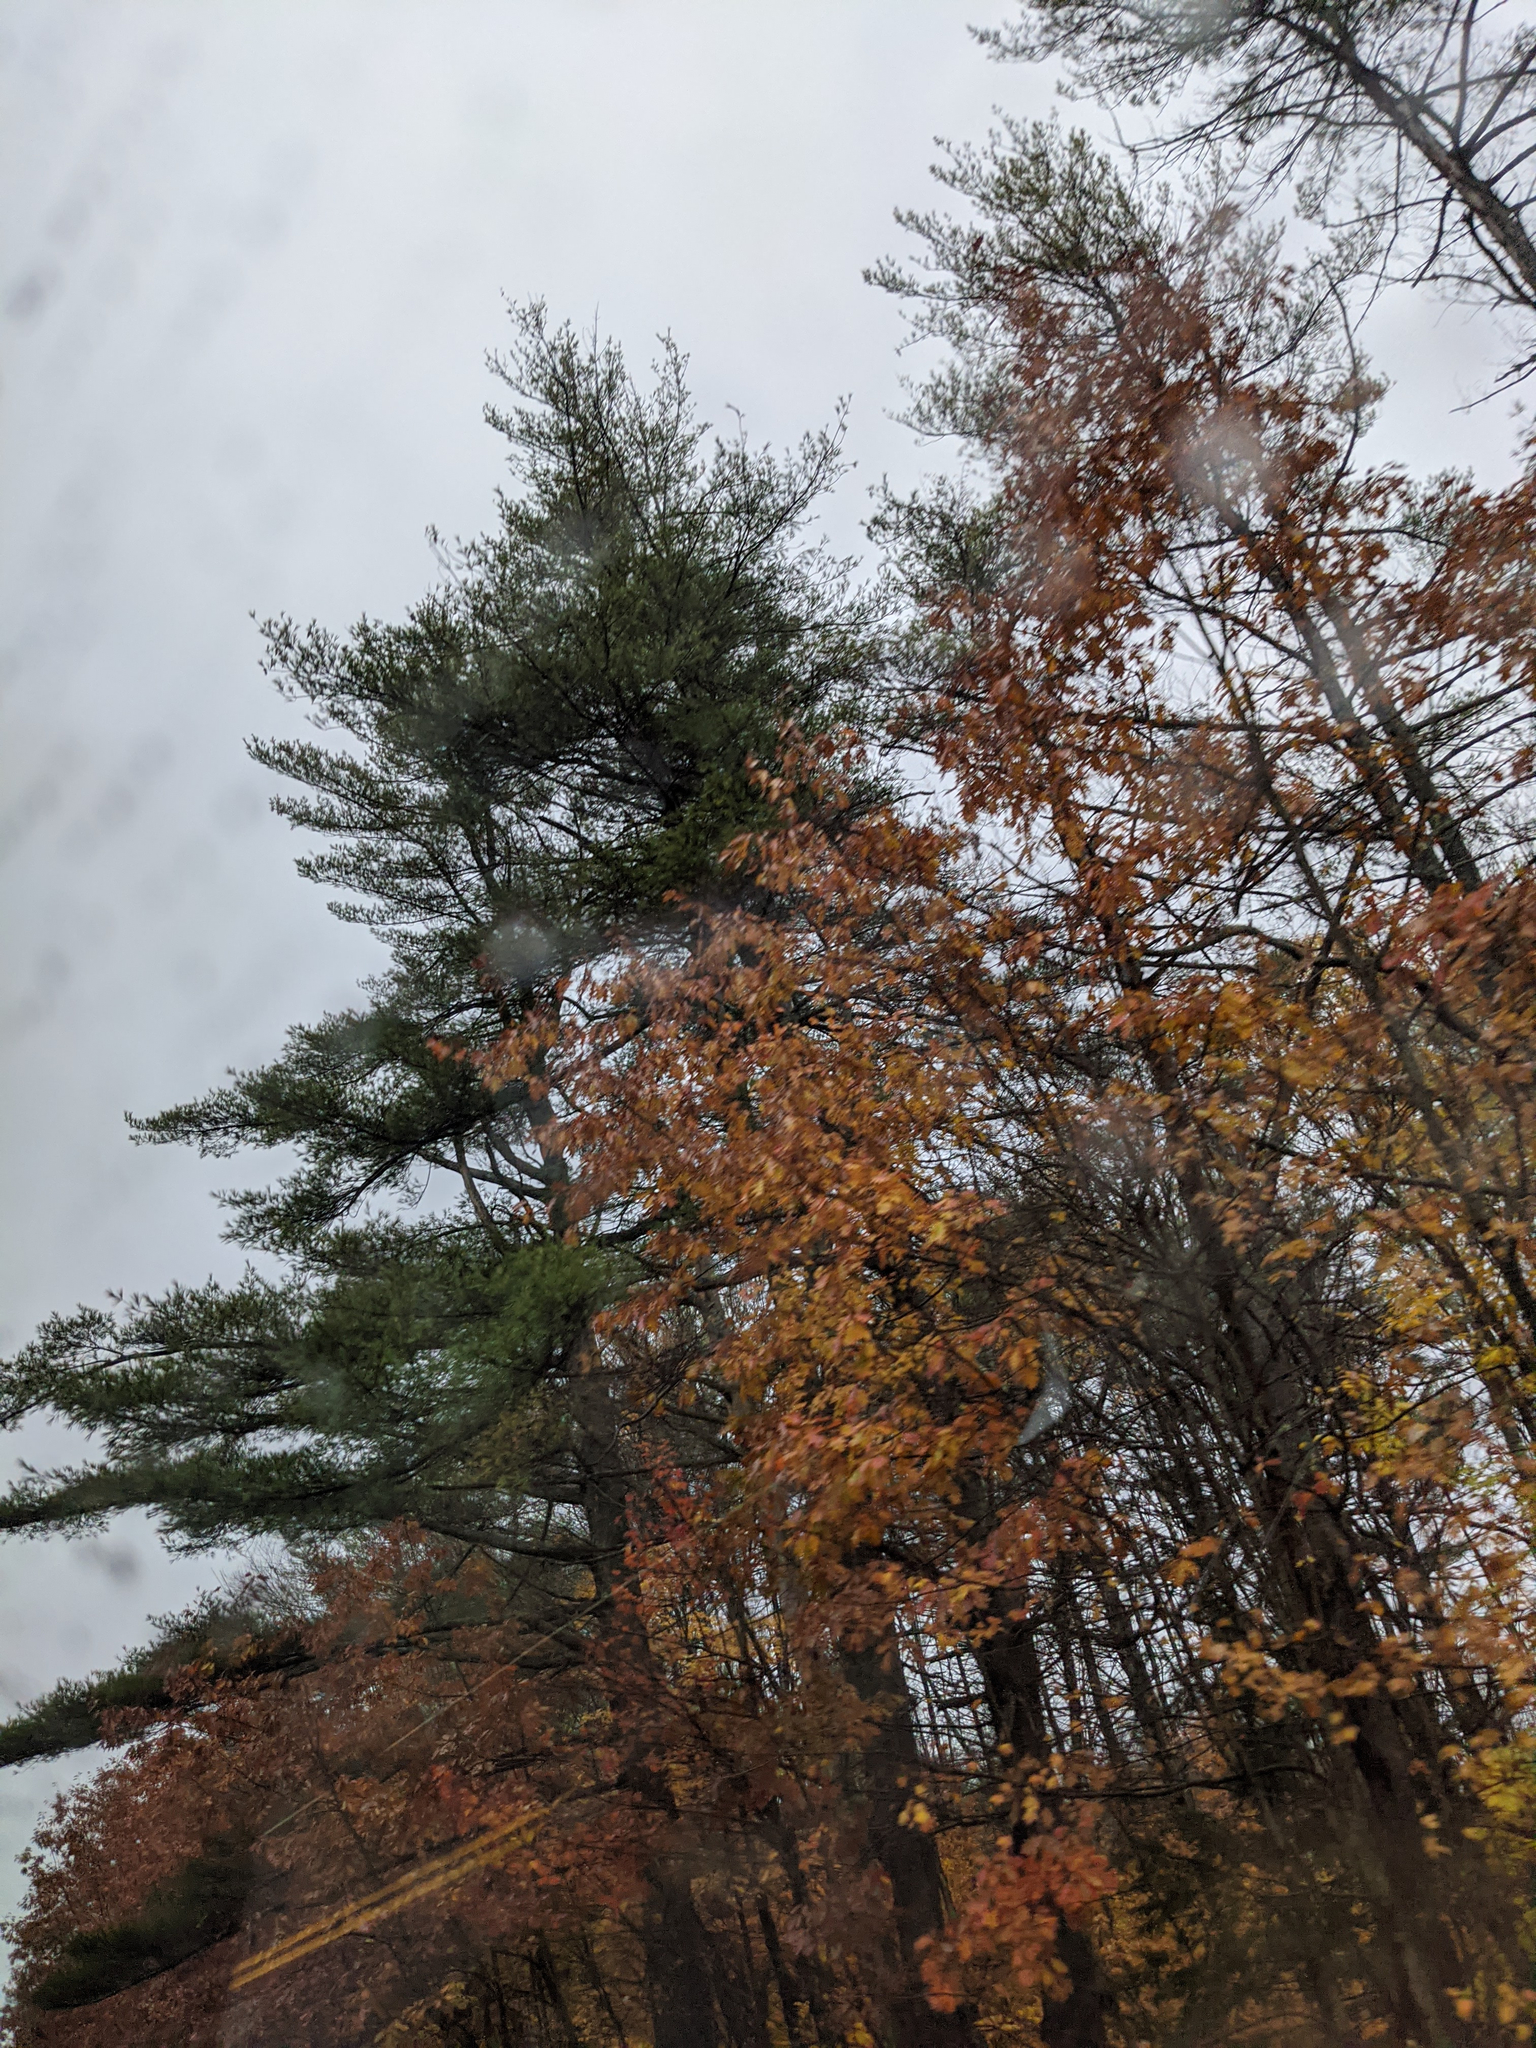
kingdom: Plantae
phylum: Tracheophyta
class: Pinopsida
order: Pinales
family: Pinaceae
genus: Pinus
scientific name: Pinus strobus
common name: Weymouth pine
